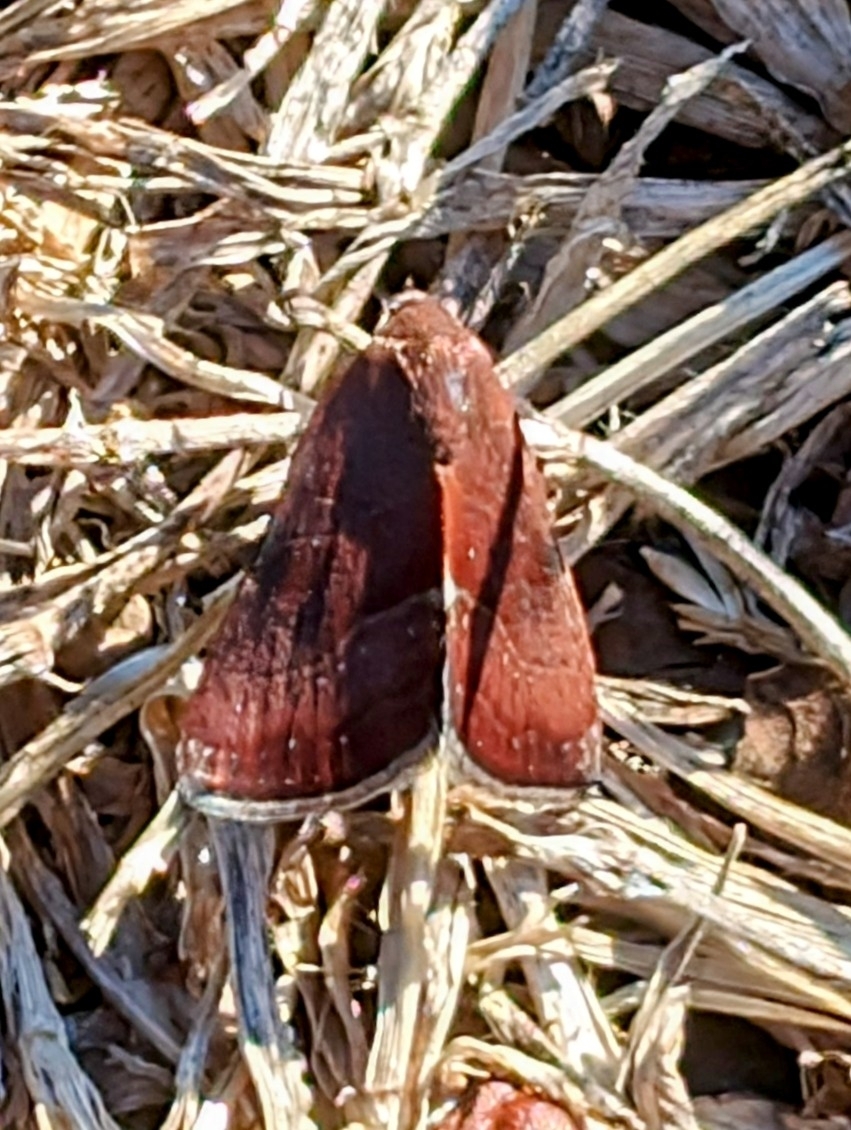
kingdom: Animalia
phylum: Arthropoda
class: Insecta
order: Lepidoptera
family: Noctuidae
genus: Galgula
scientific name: Galgula partita
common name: Wedgeling
